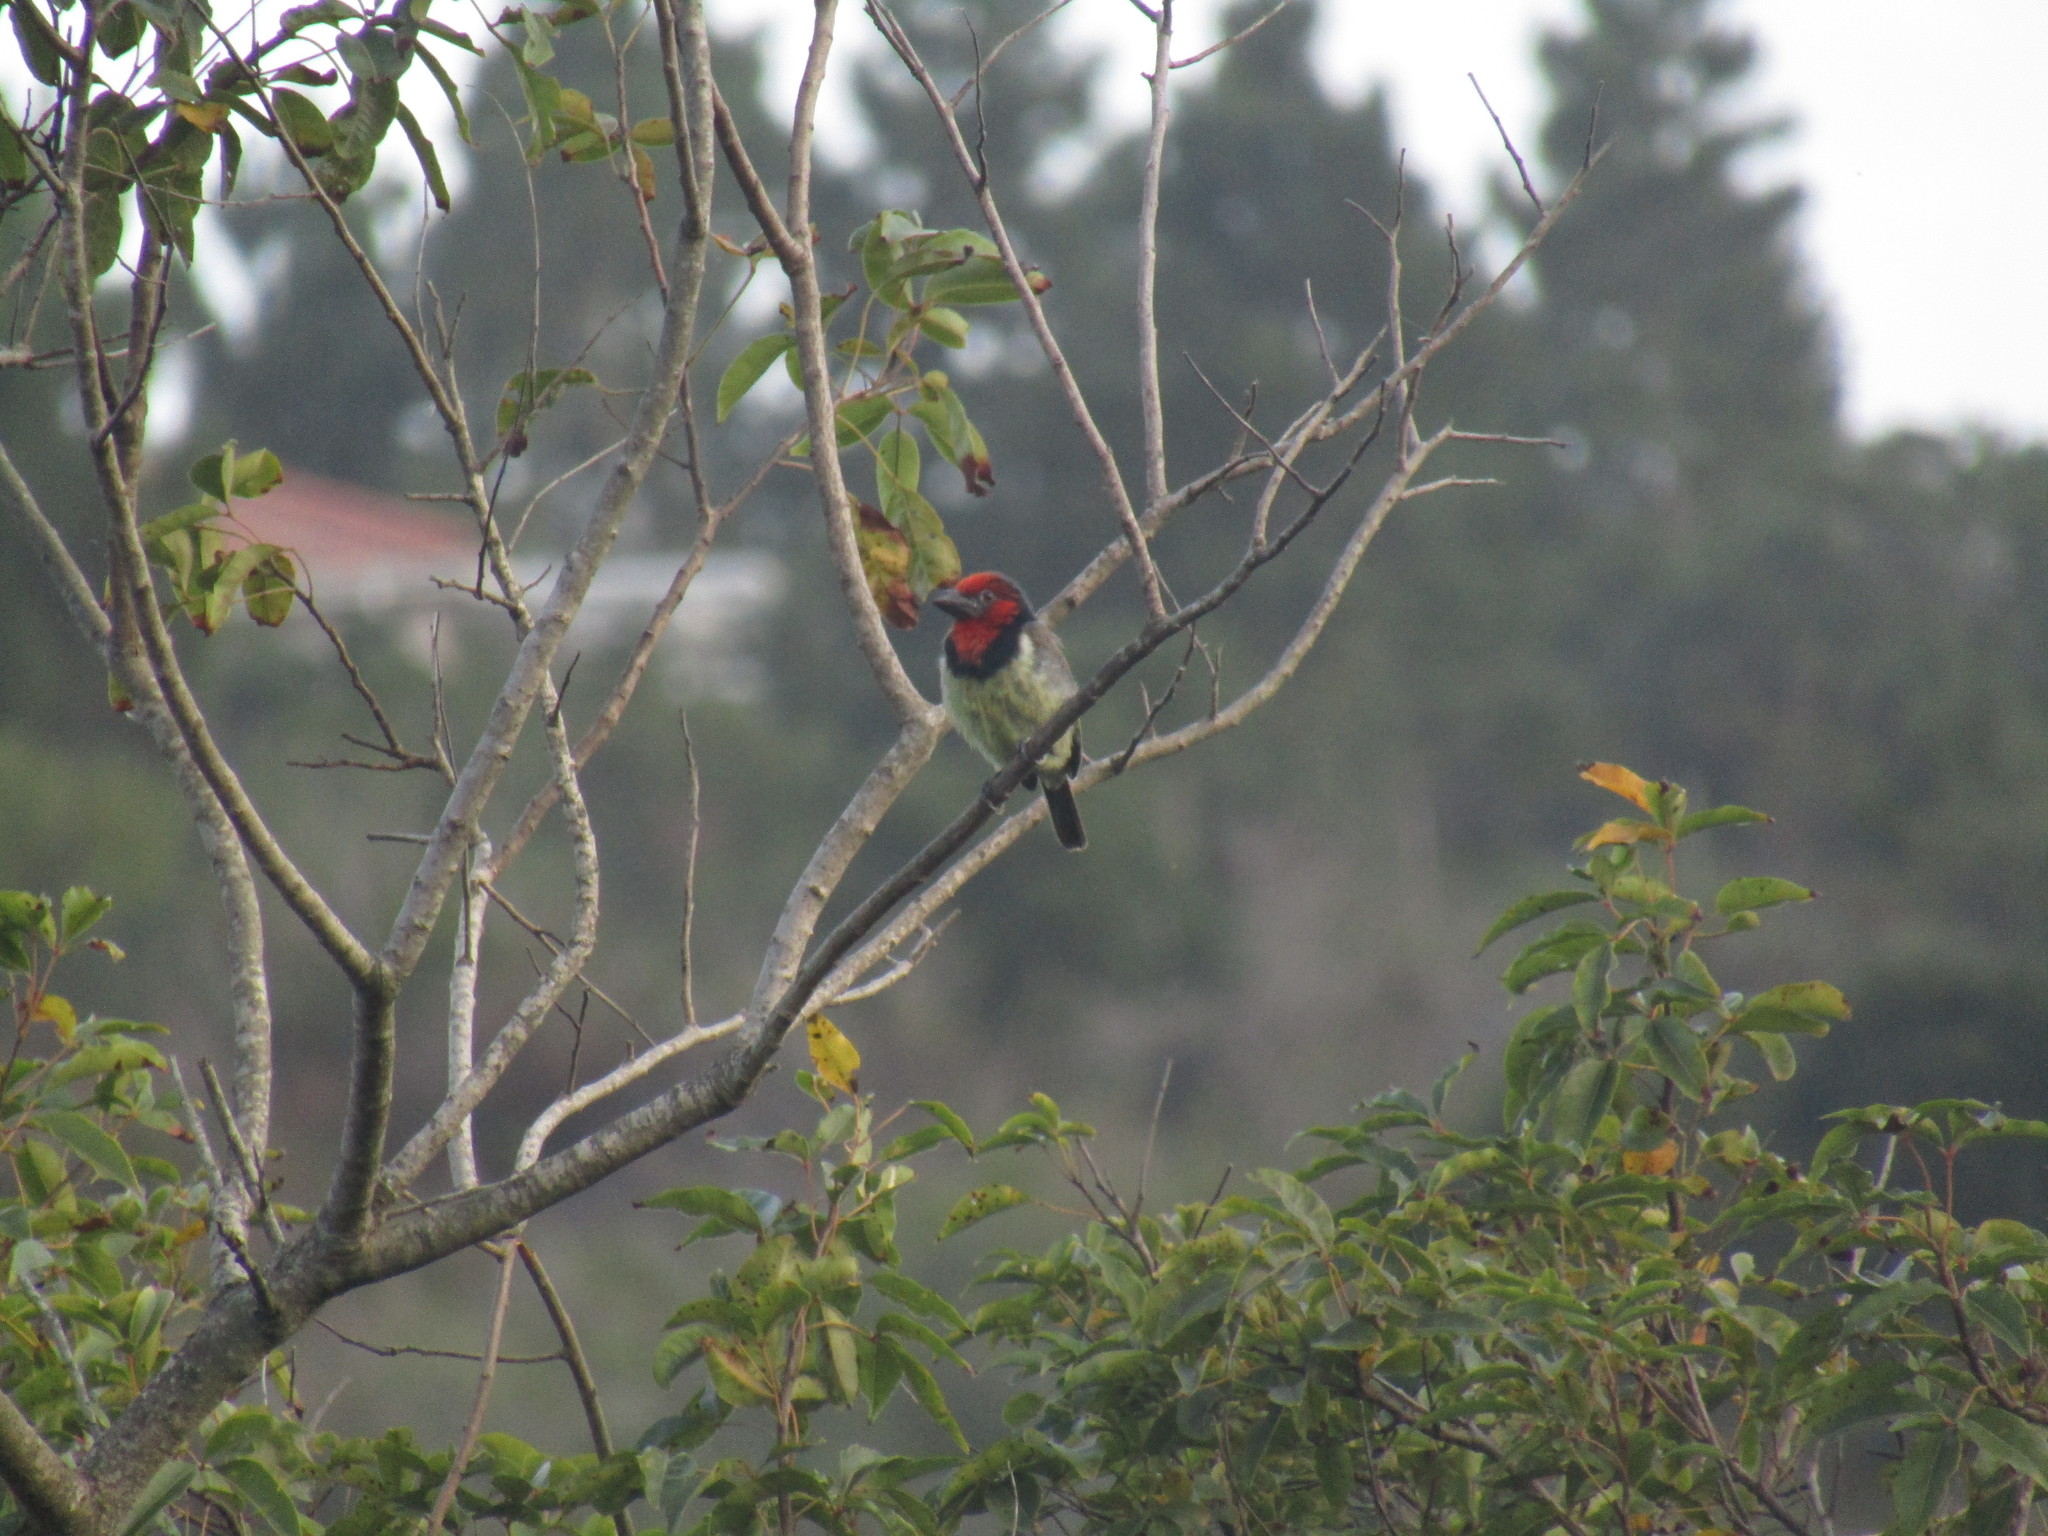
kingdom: Animalia
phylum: Chordata
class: Aves
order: Piciformes
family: Lybiidae
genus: Lybius
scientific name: Lybius torquatus
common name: Black-collared barbet
